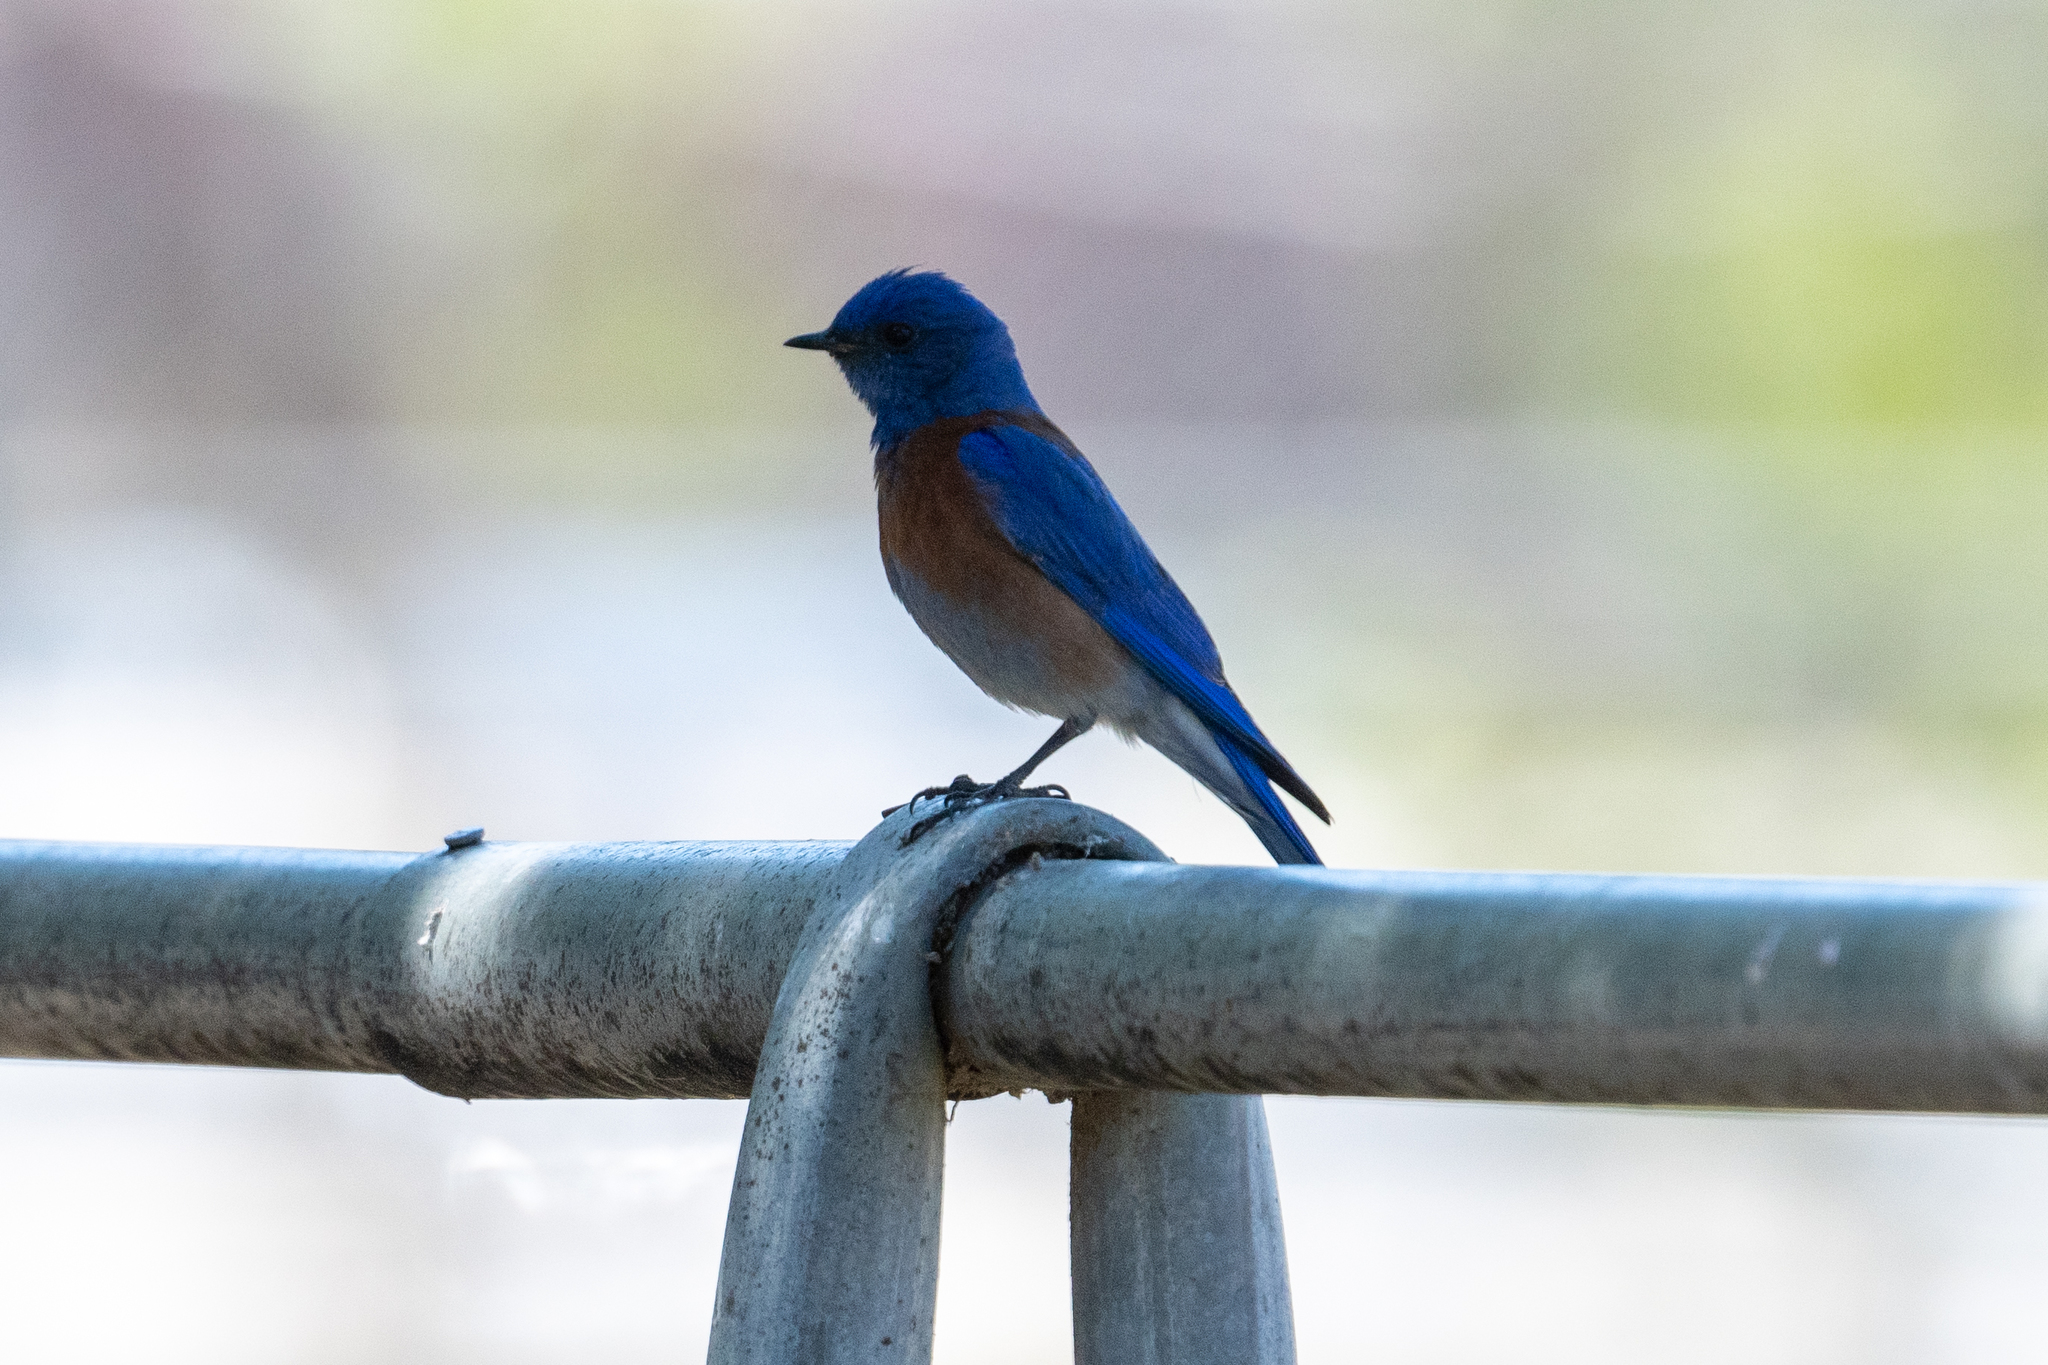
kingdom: Animalia
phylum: Chordata
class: Aves
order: Passeriformes
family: Turdidae
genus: Sialia
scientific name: Sialia mexicana
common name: Western bluebird
